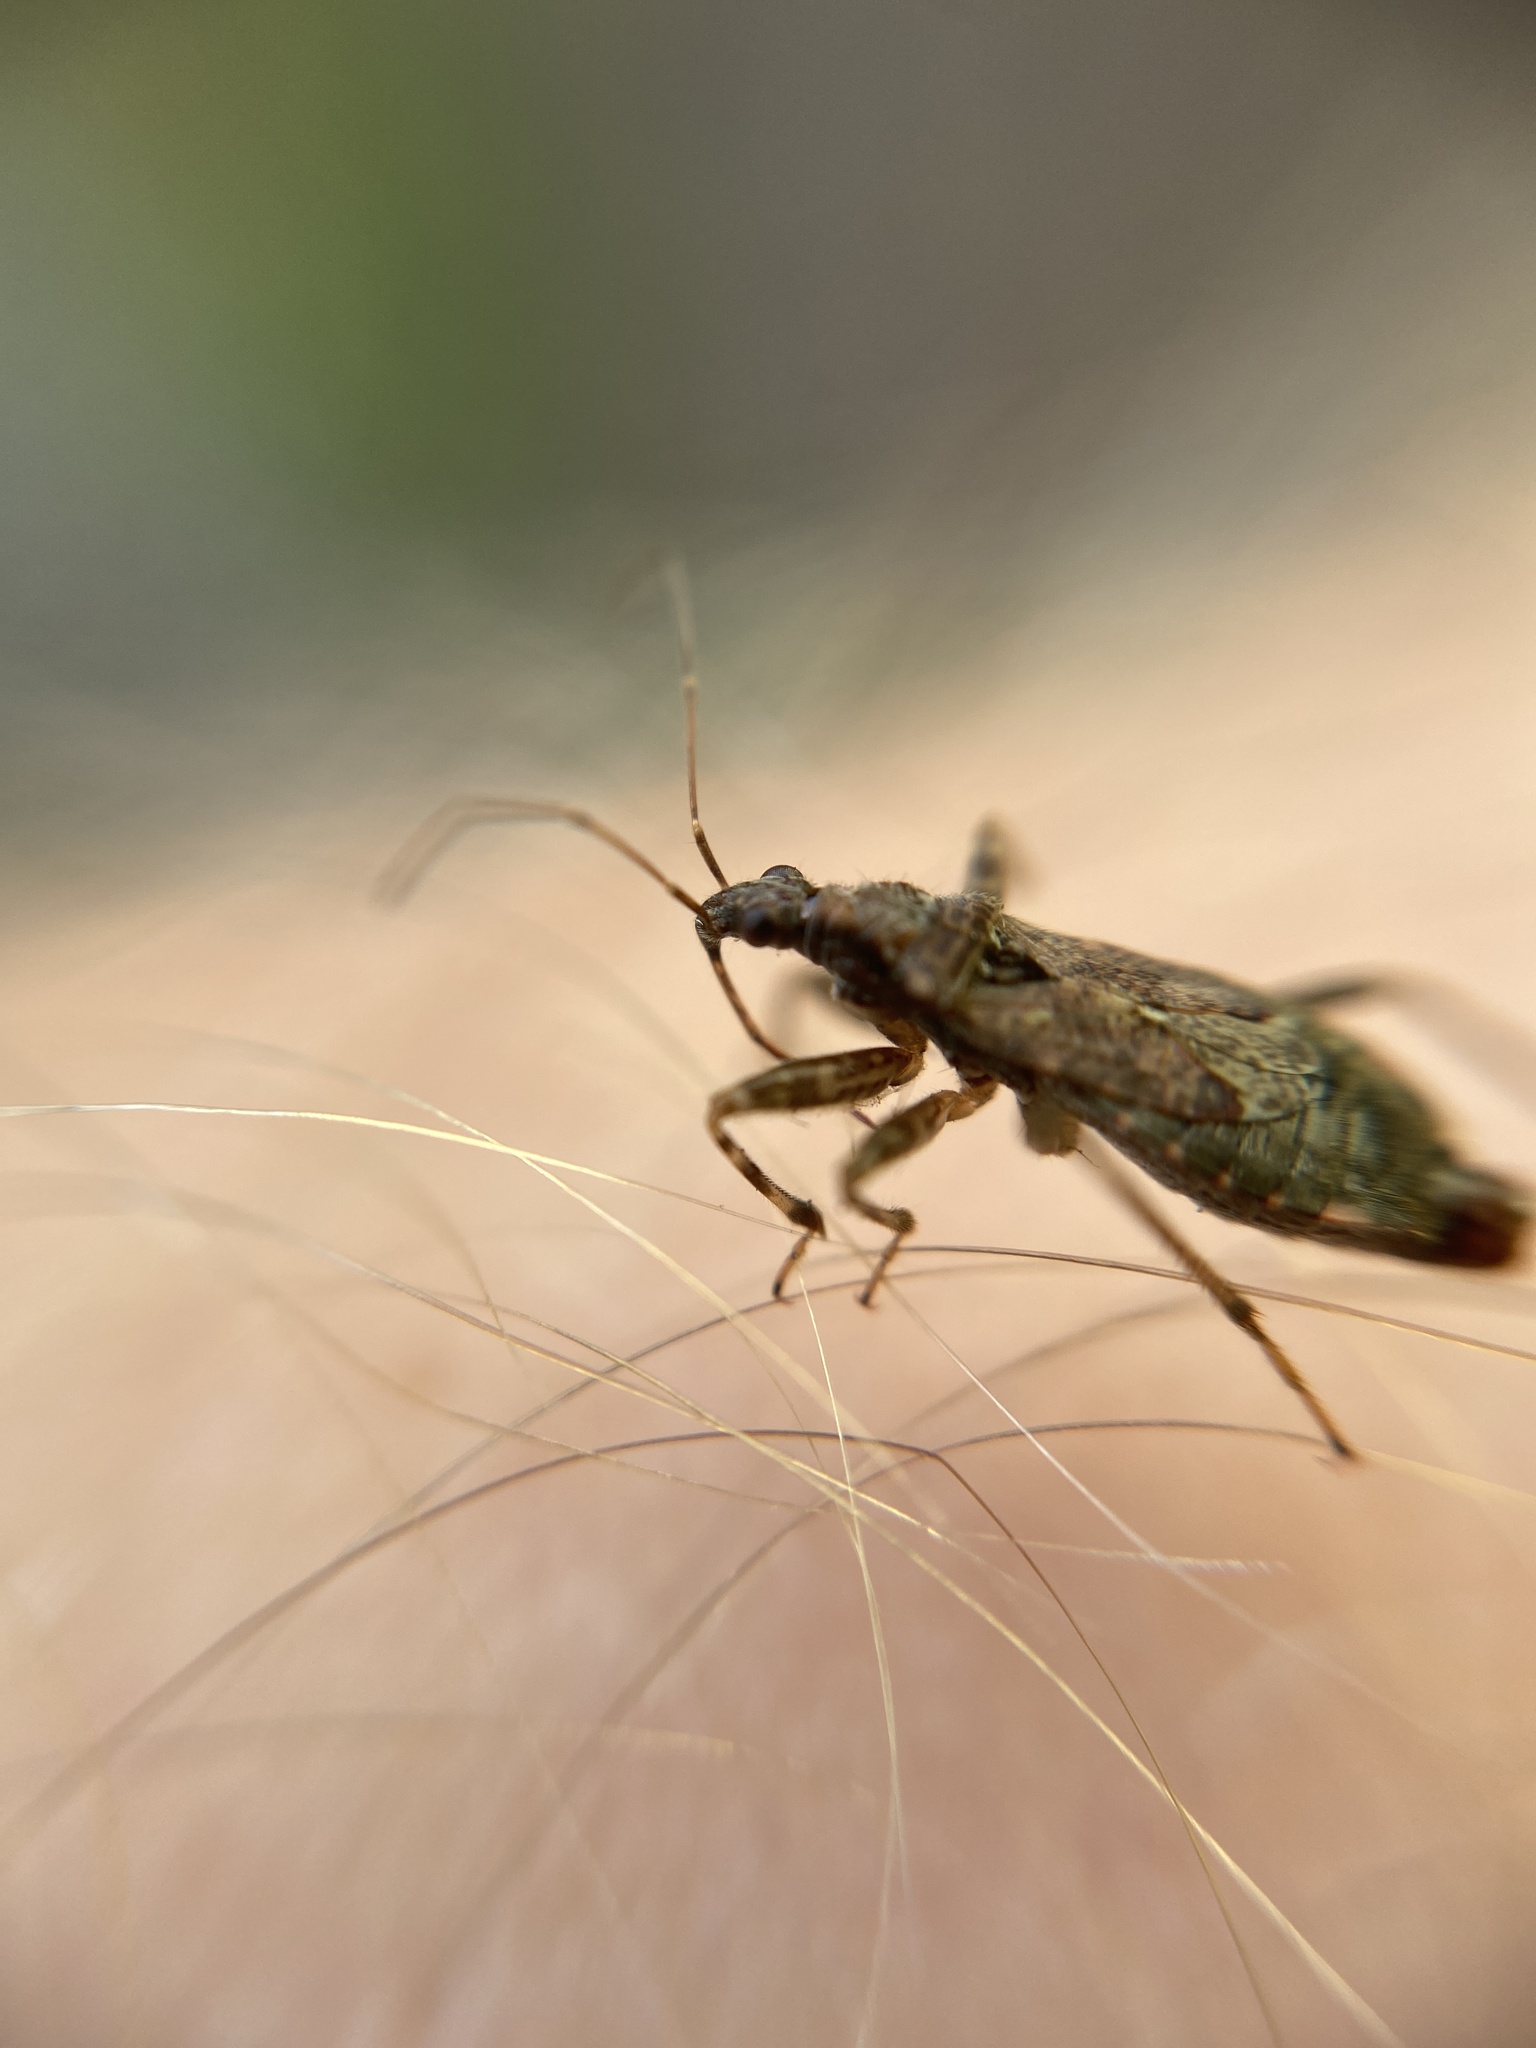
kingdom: Animalia
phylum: Arthropoda
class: Insecta
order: Hemiptera
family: Nabidae
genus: Himacerus
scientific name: Himacerus mirmicoides
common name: Ant damsel bug
